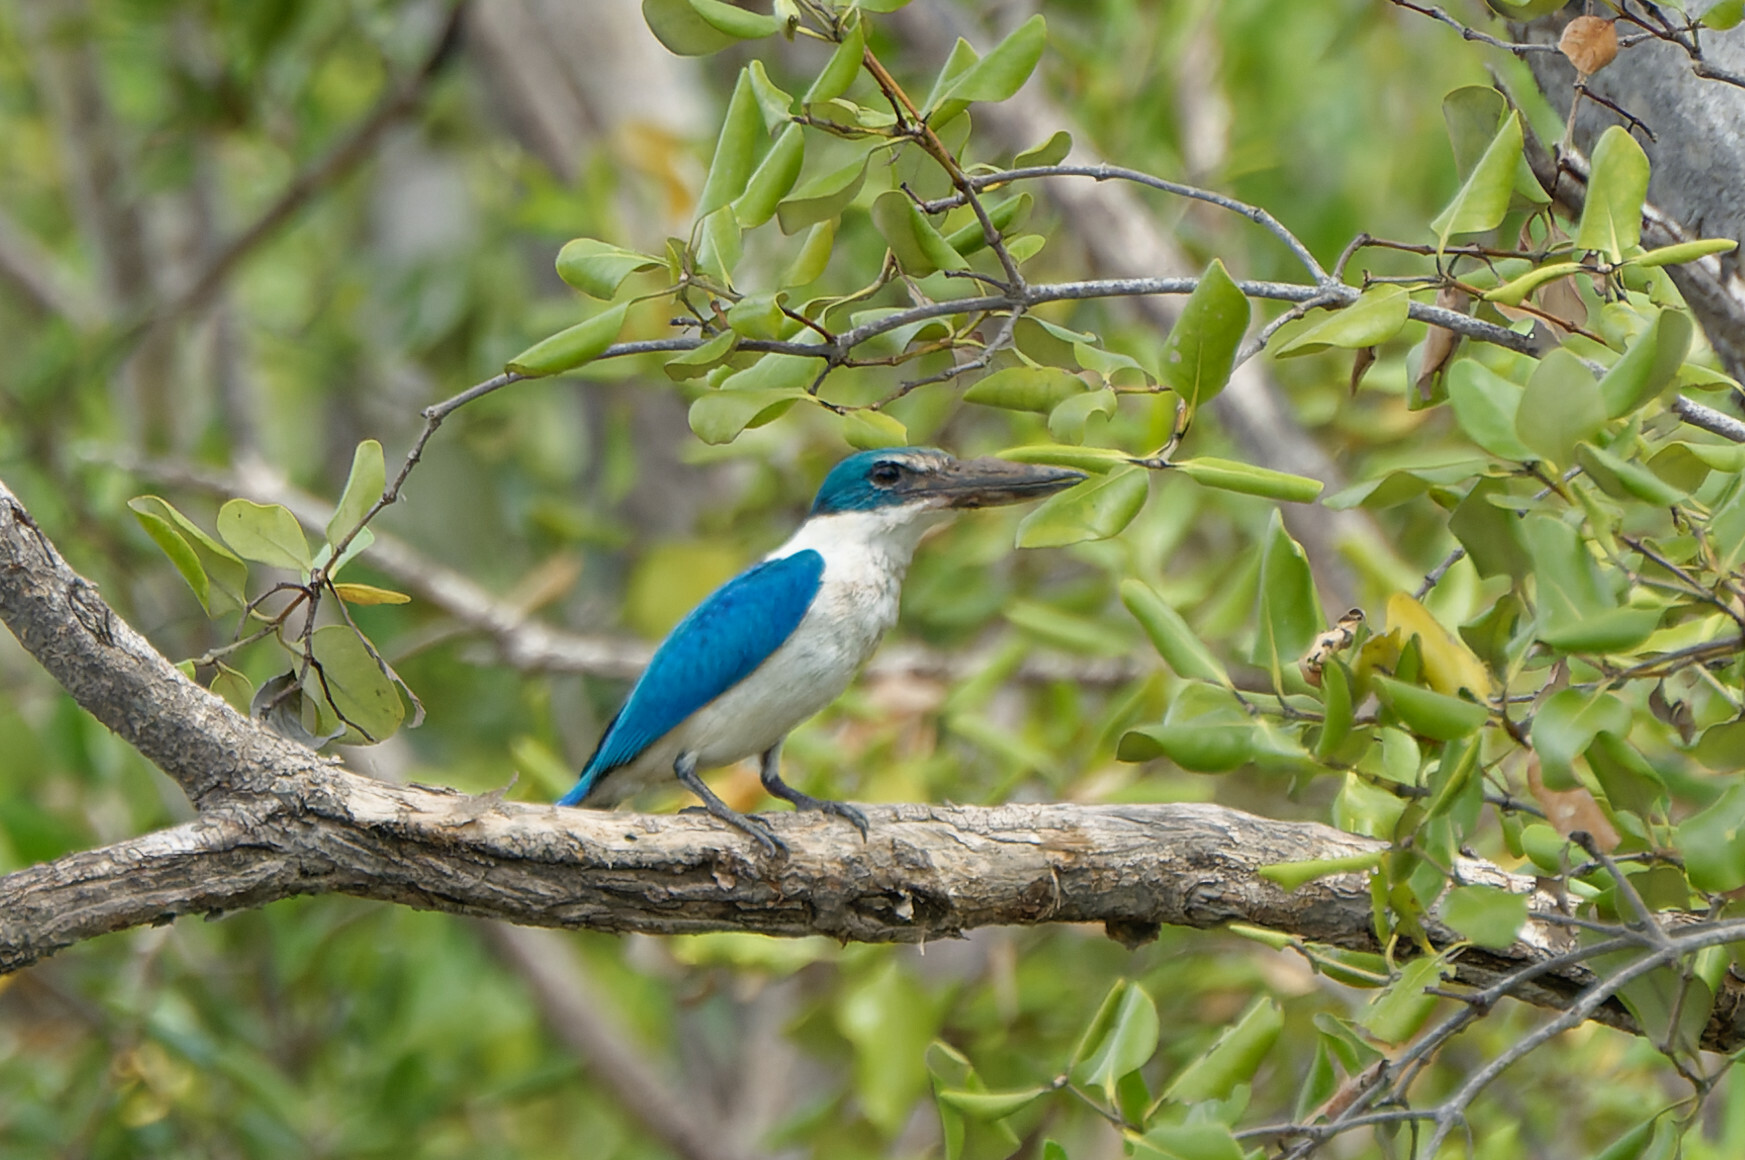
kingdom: Animalia
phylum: Chordata
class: Aves
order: Coraciiformes
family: Alcedinidae
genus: Todiramphus
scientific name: Todiramphus chloris
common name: Collared kingfisher
